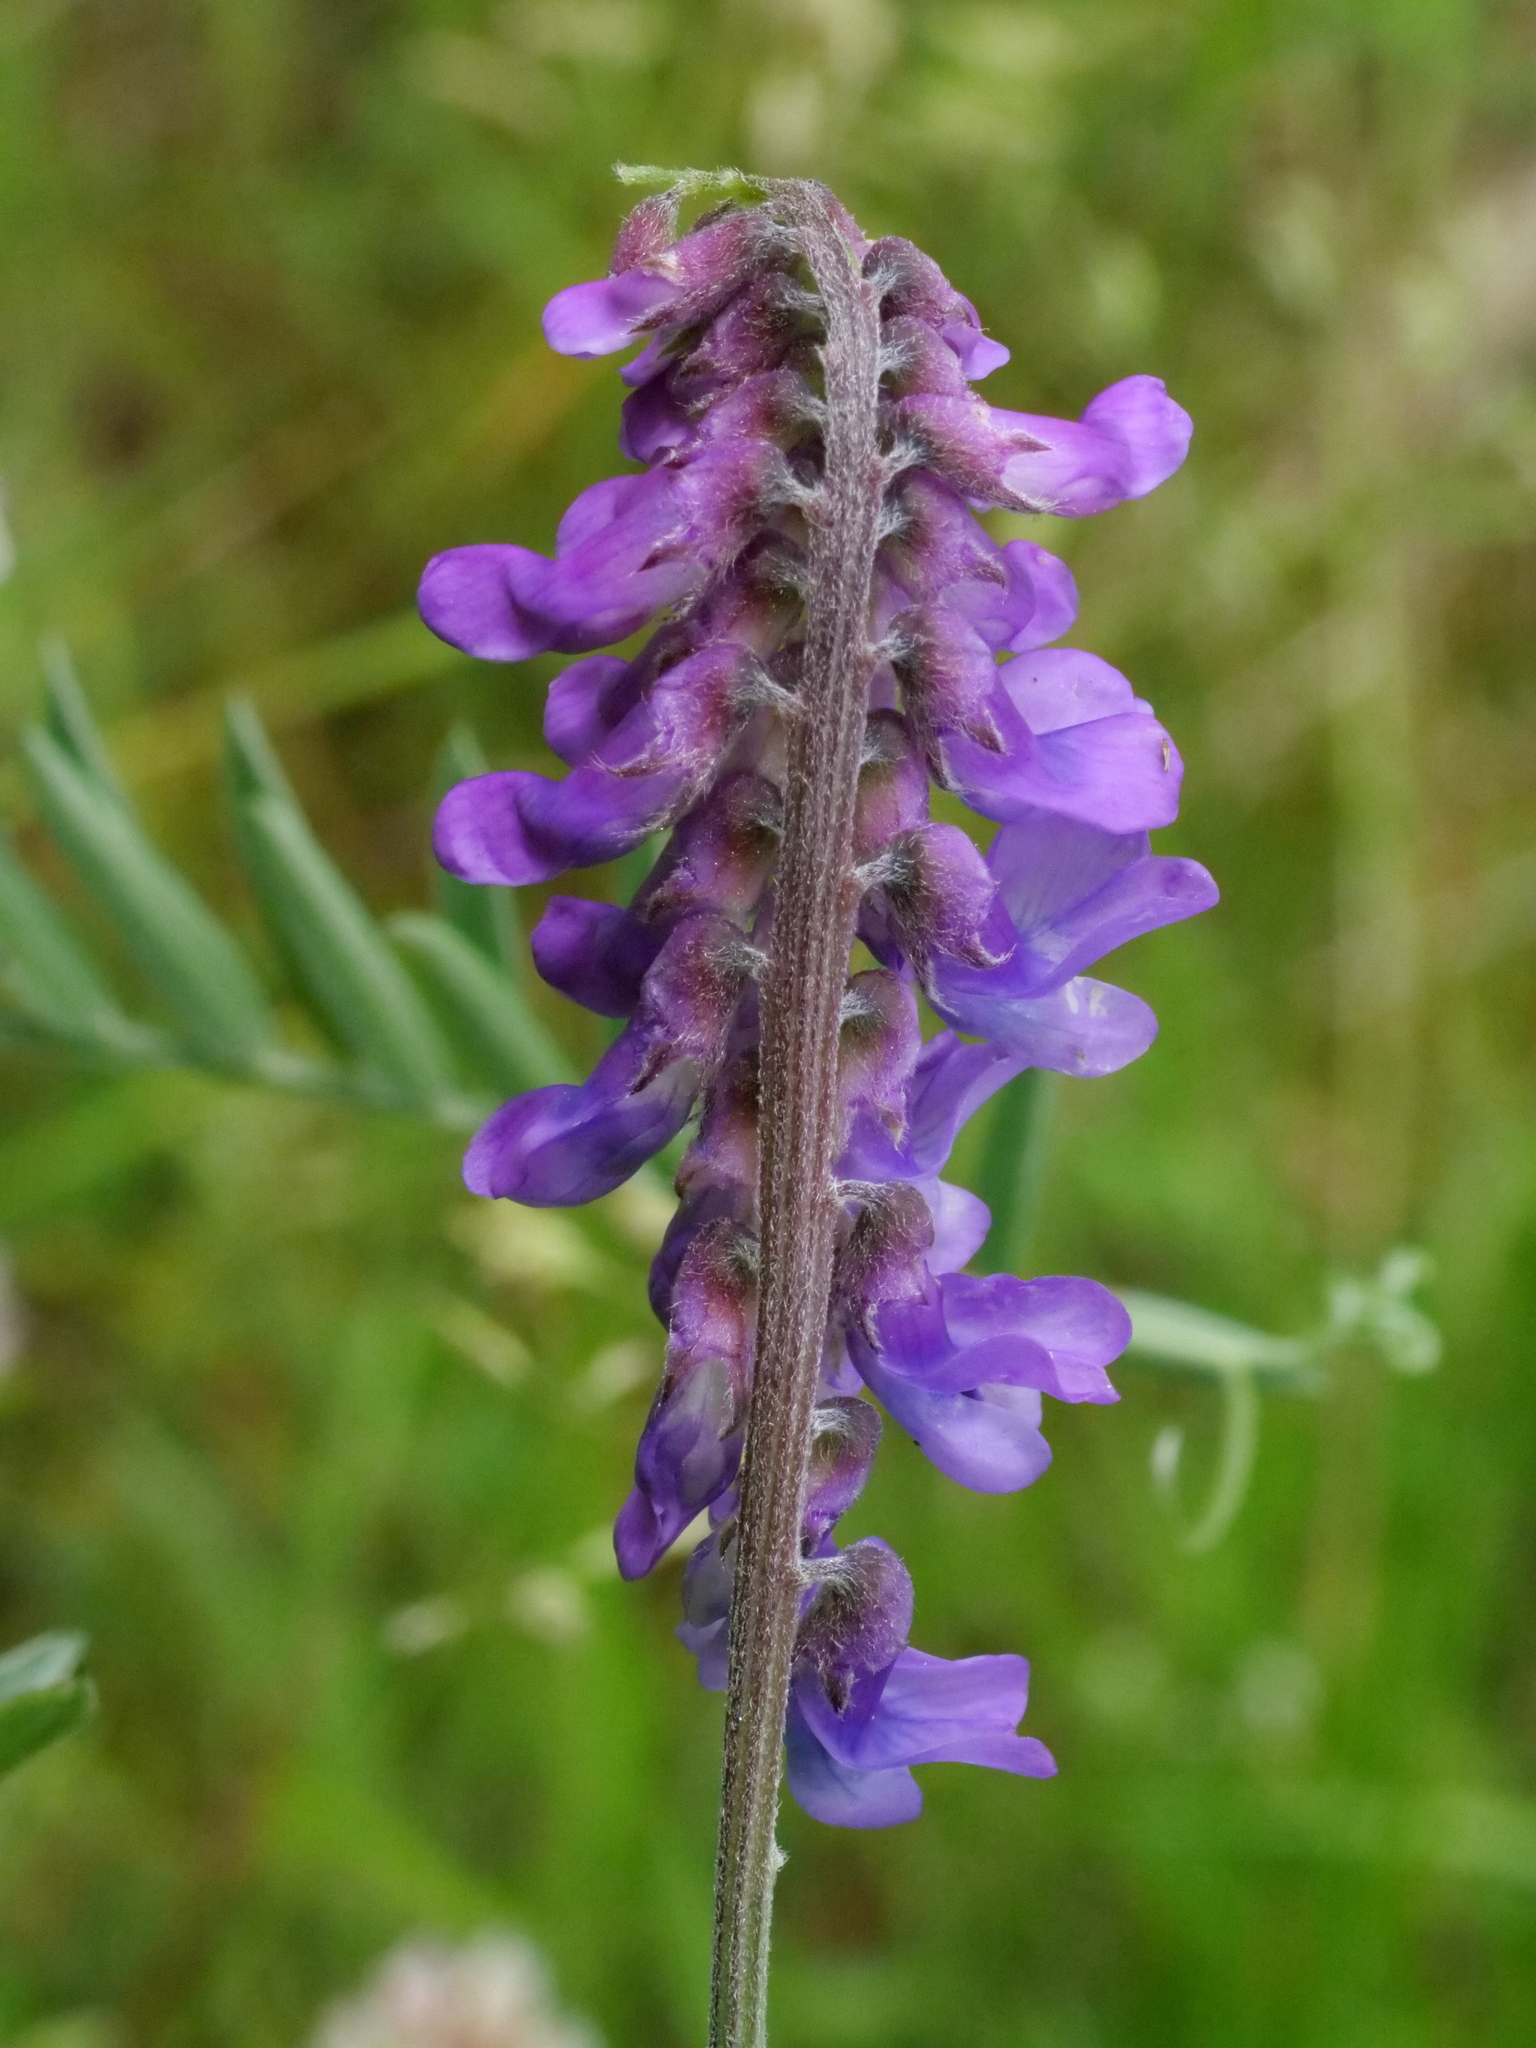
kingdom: Plantae
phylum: Tracheophyta
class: Magnoliopsida
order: Fabales
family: Fabaceae
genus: Vicia
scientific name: Vicia cracca
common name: Bird vetch
